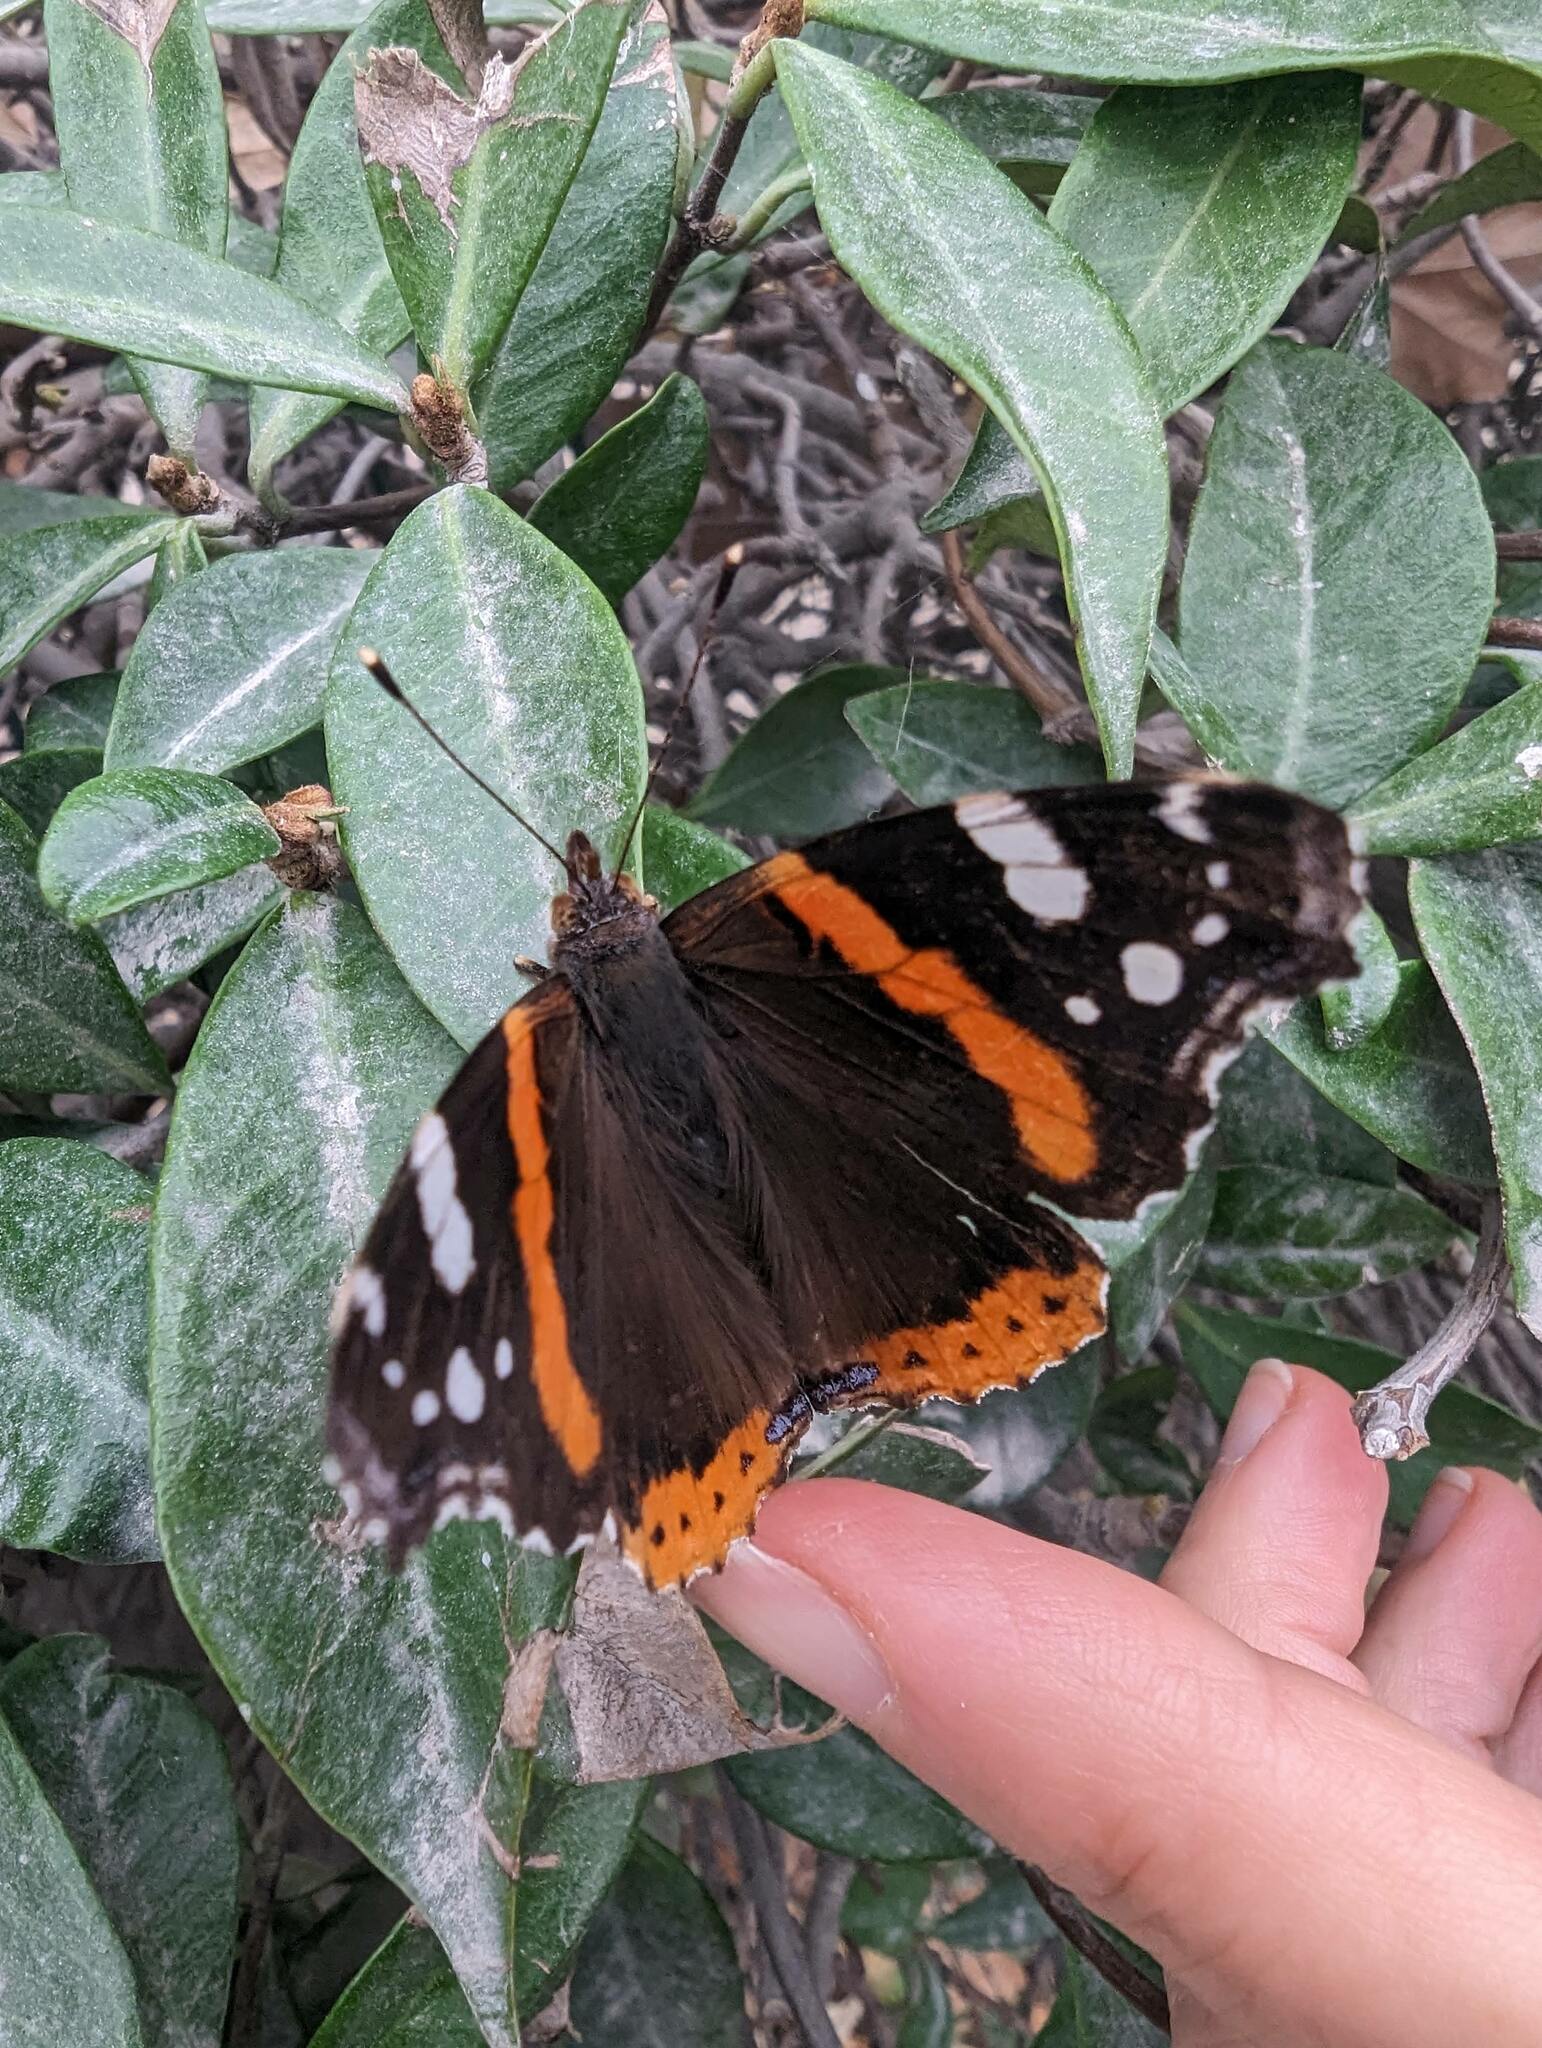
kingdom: Animalia
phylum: Arthropoda
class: Insecta
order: Lepidoptera
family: Nymphalidae
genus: Vanessa
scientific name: Vanessa atalanta
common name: Red admiral
